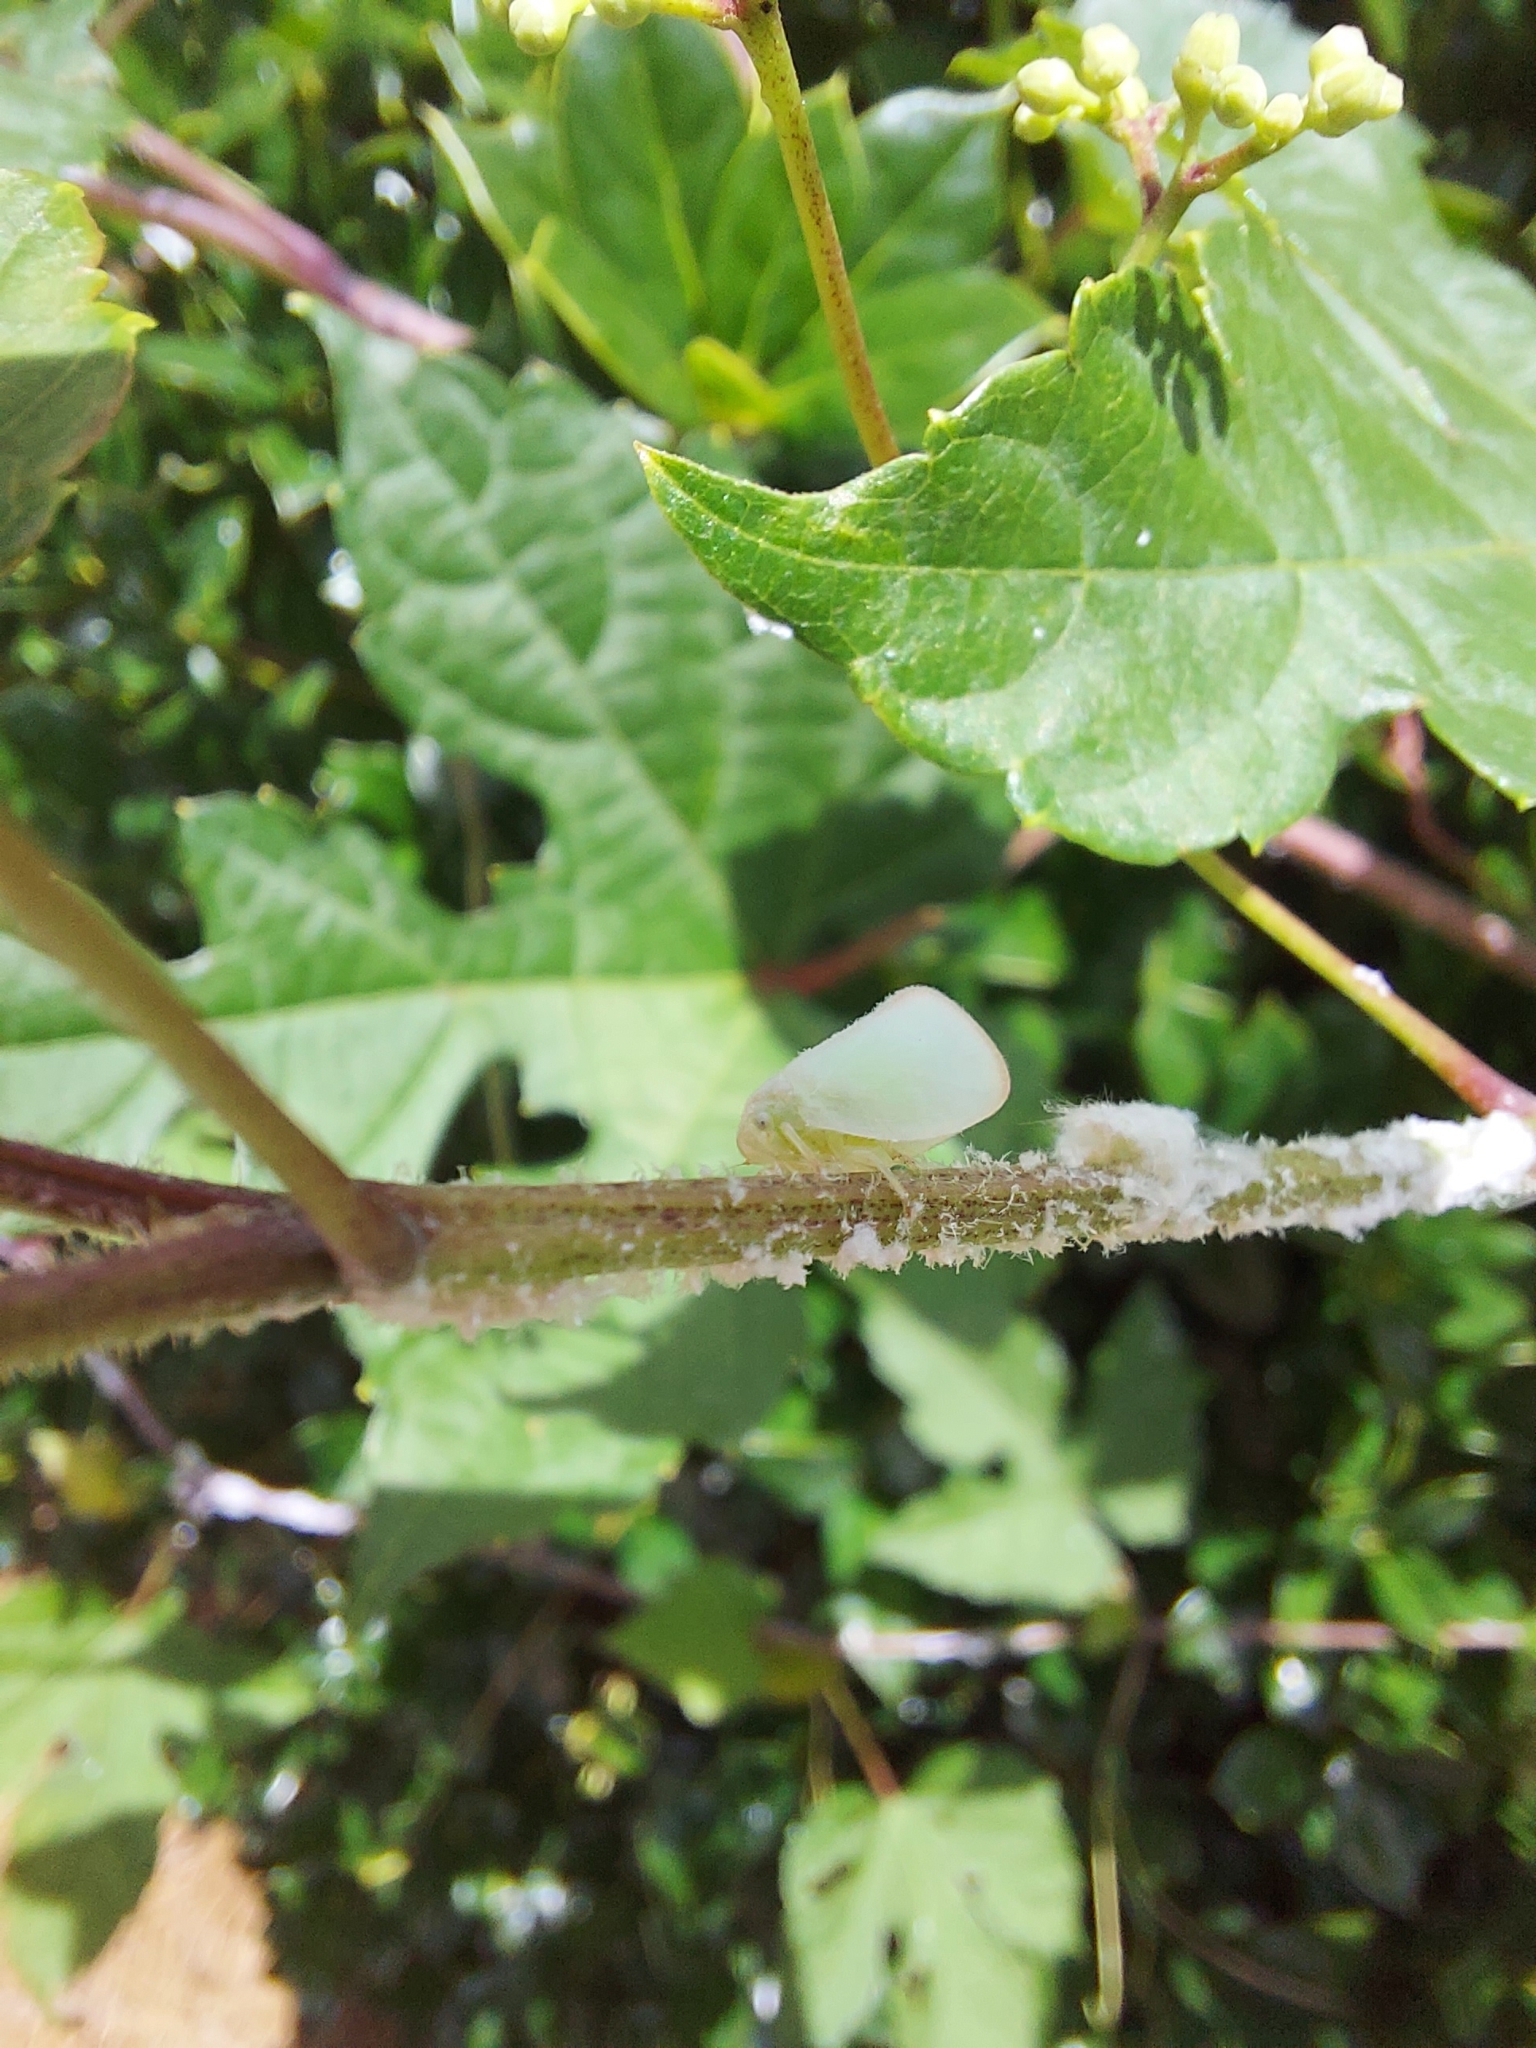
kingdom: Animalia
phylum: Arthropoda
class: Insecta
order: Hemiptera
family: Flatidae
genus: Ormenoides
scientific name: Ormenoides venusta
